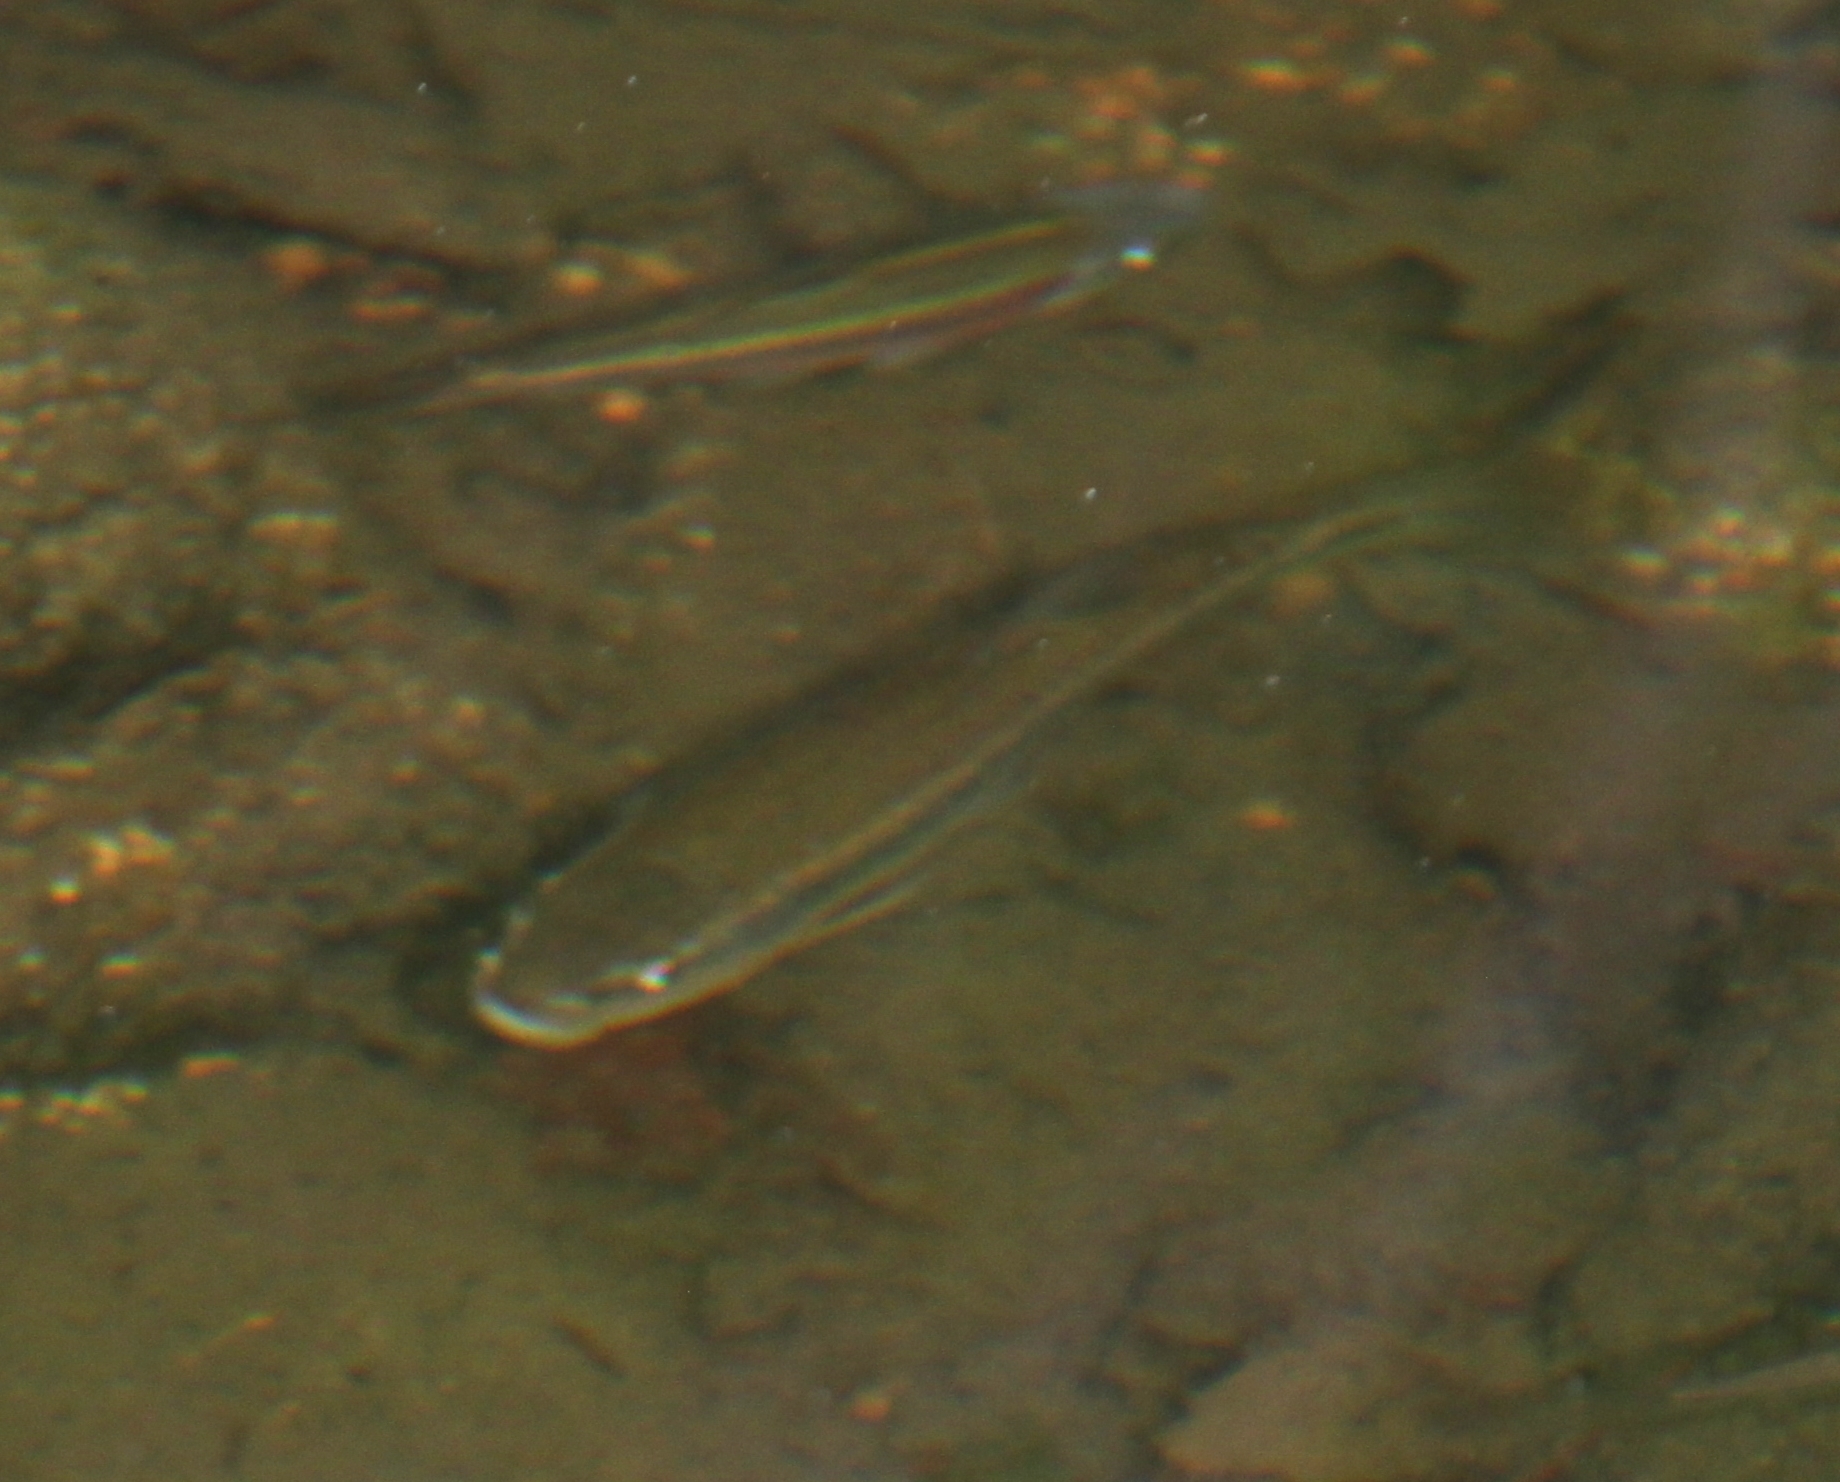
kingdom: Animalia
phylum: Chordata
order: Cypriniformes
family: Cyprinidae
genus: Semotilus
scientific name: Semotilus atromaculatus
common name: Creek chub
